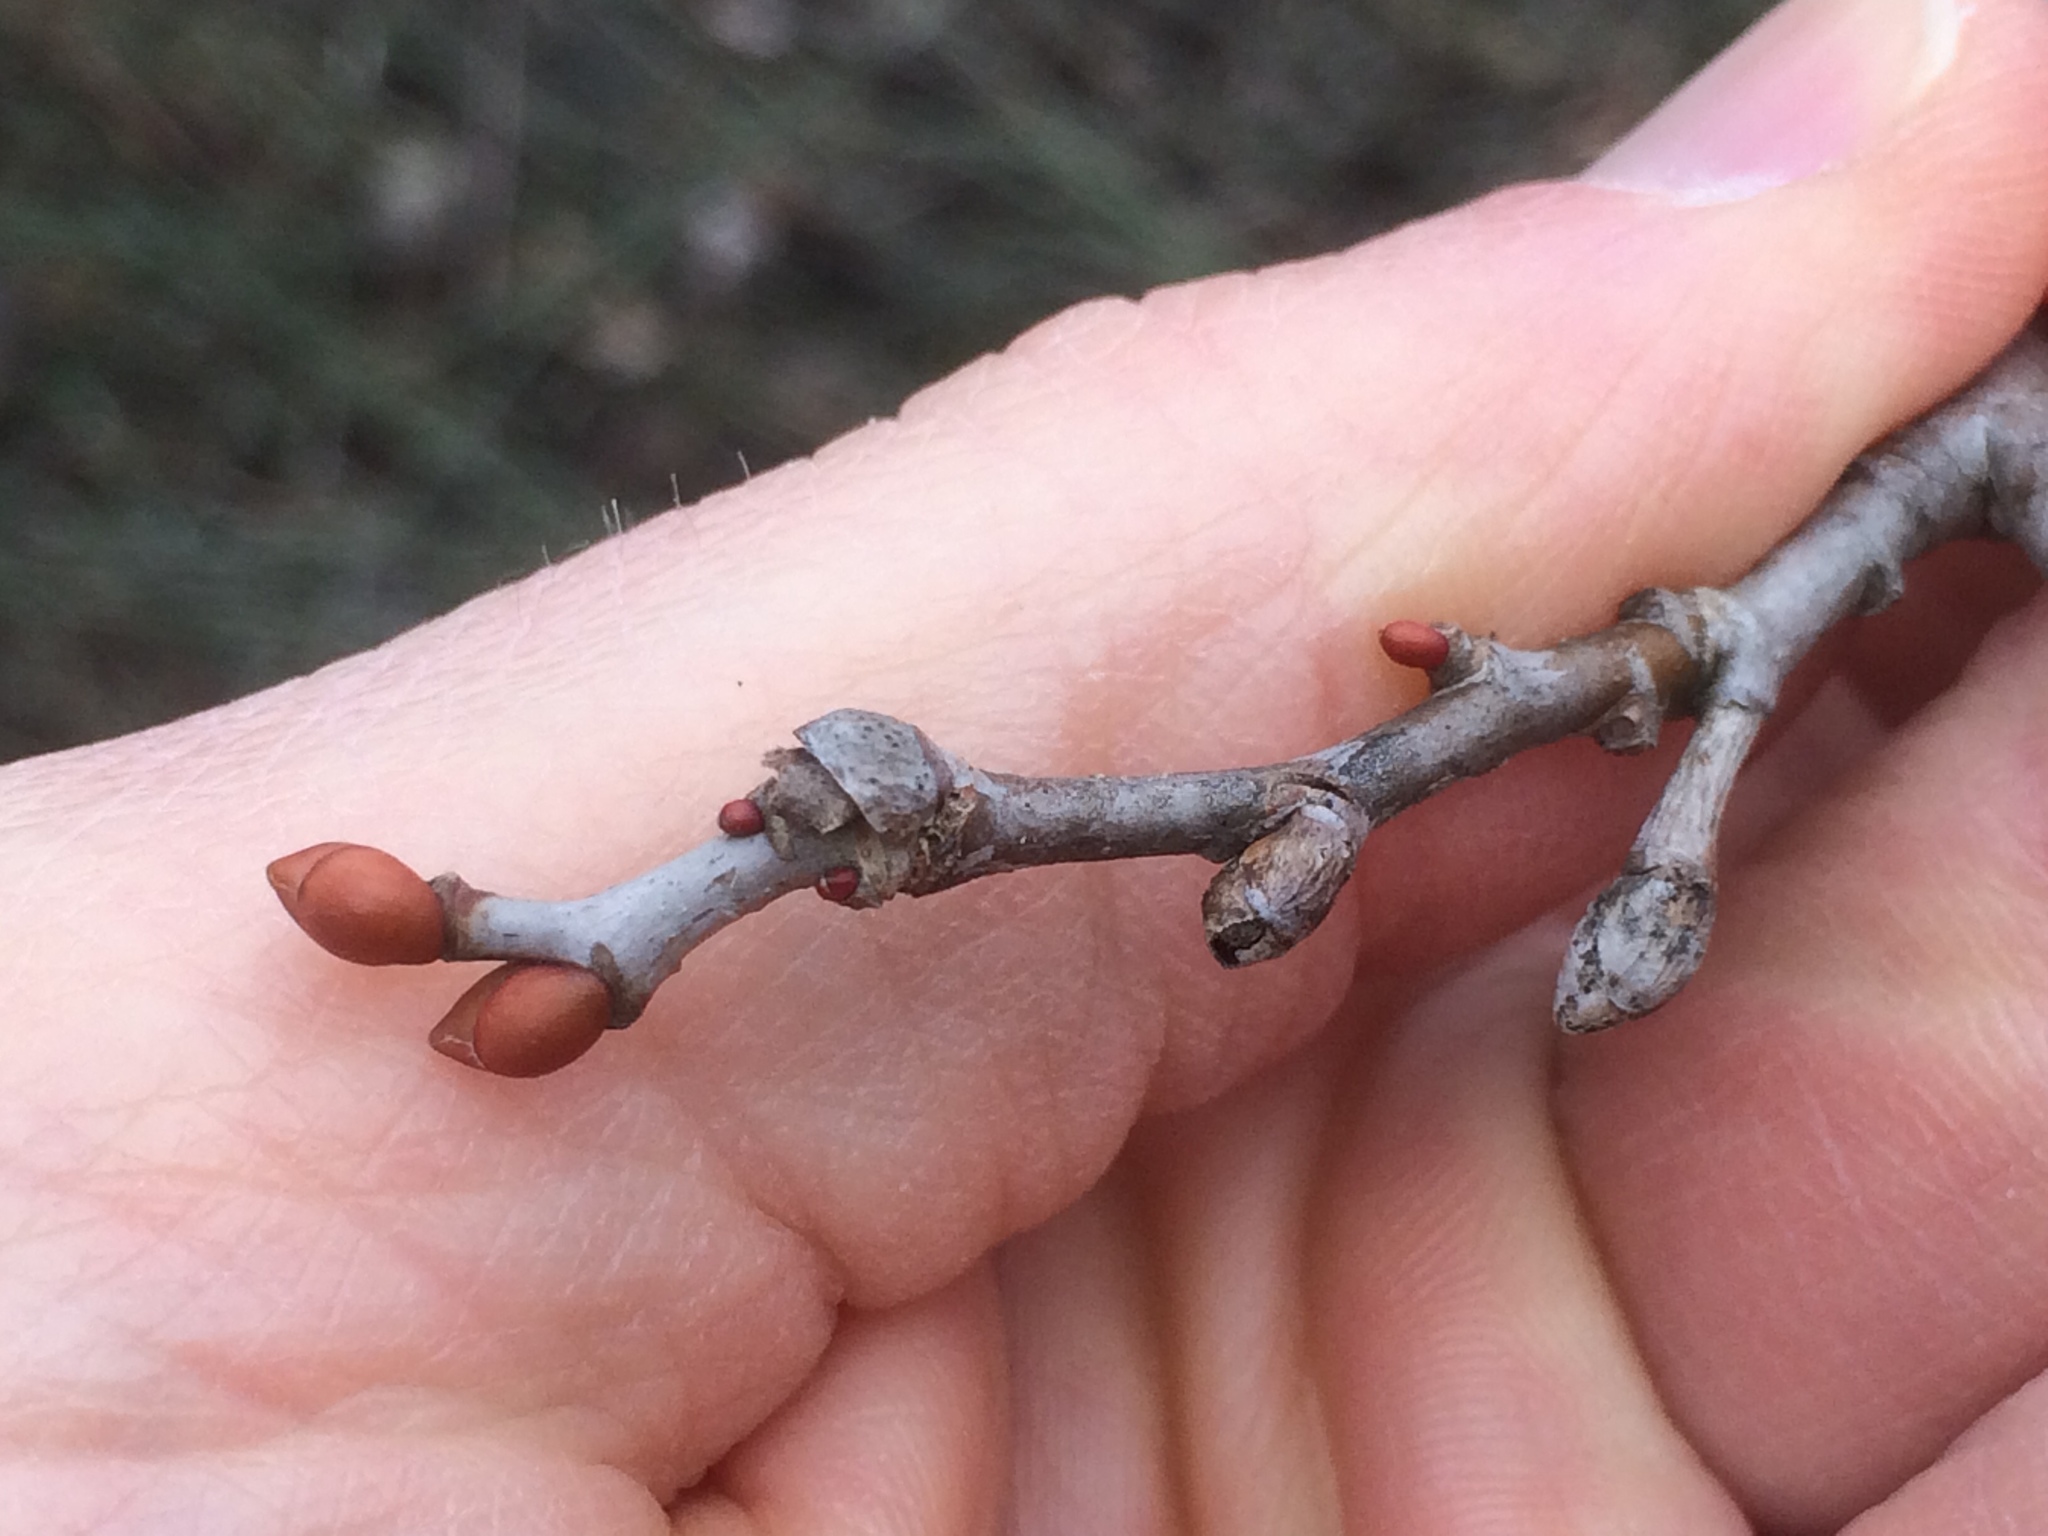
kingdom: Plantae
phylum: Tracheophyta
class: Magnoliopsida
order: Malvales
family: Malvaceae
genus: Tilia
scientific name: Tilia americana
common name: Basswood
